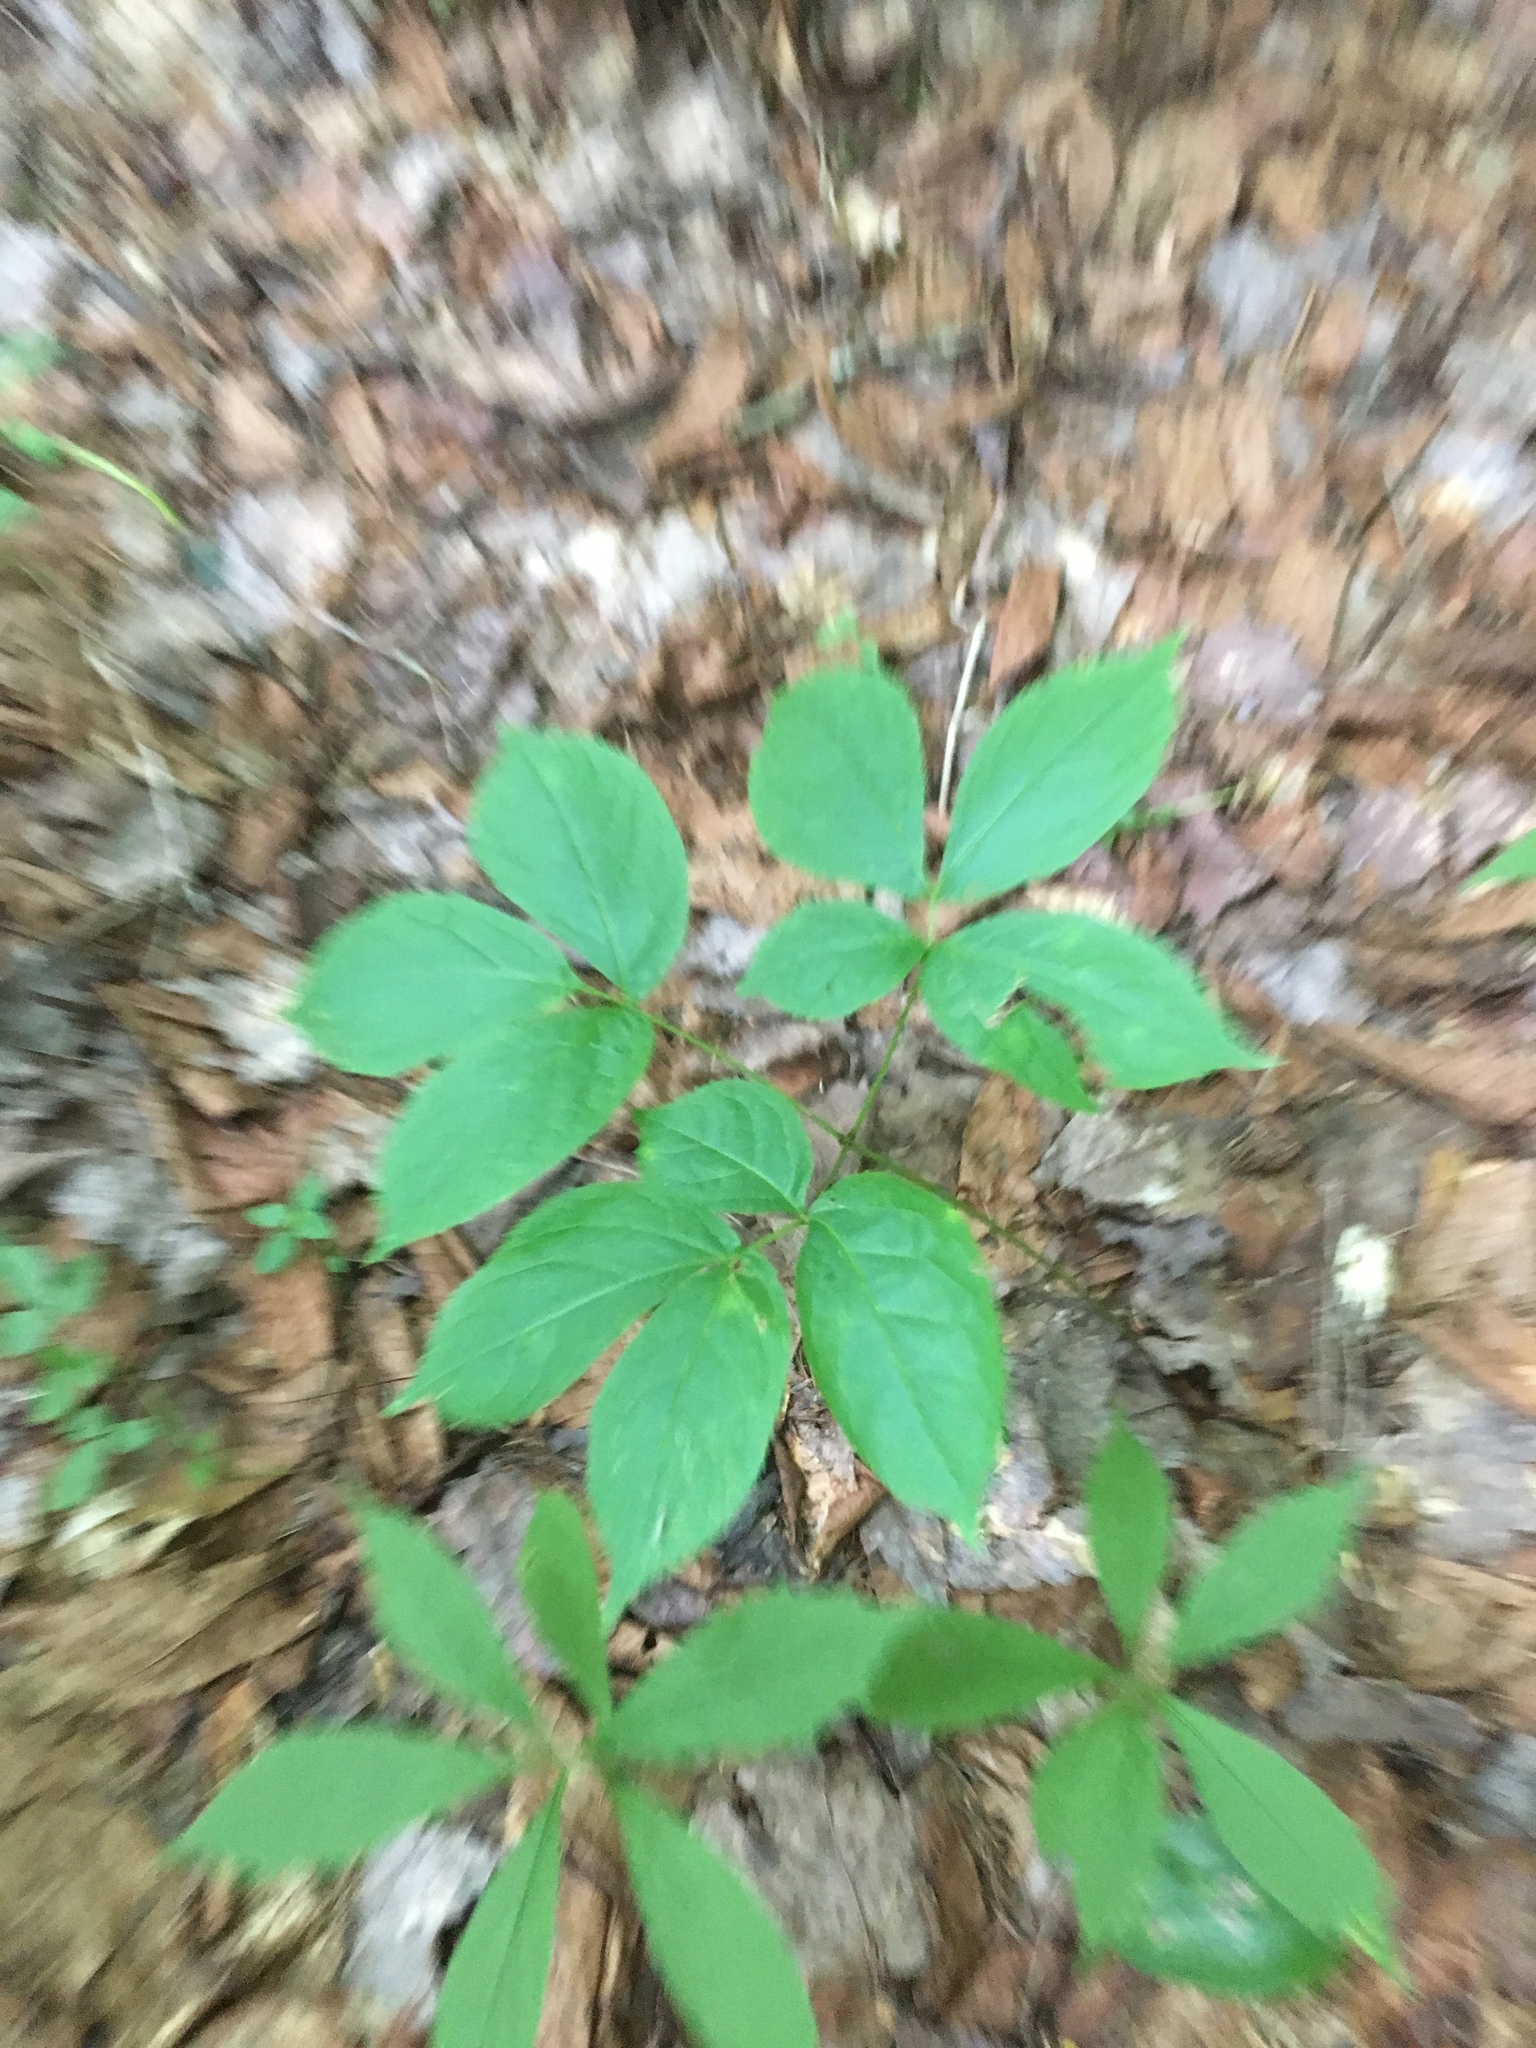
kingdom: Plantae
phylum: Tracheophyta
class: Magnoliopsida
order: Apiales
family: Araliaceae
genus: Aralia
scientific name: Aralia nudicaulis
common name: Wild sarsaparilla
